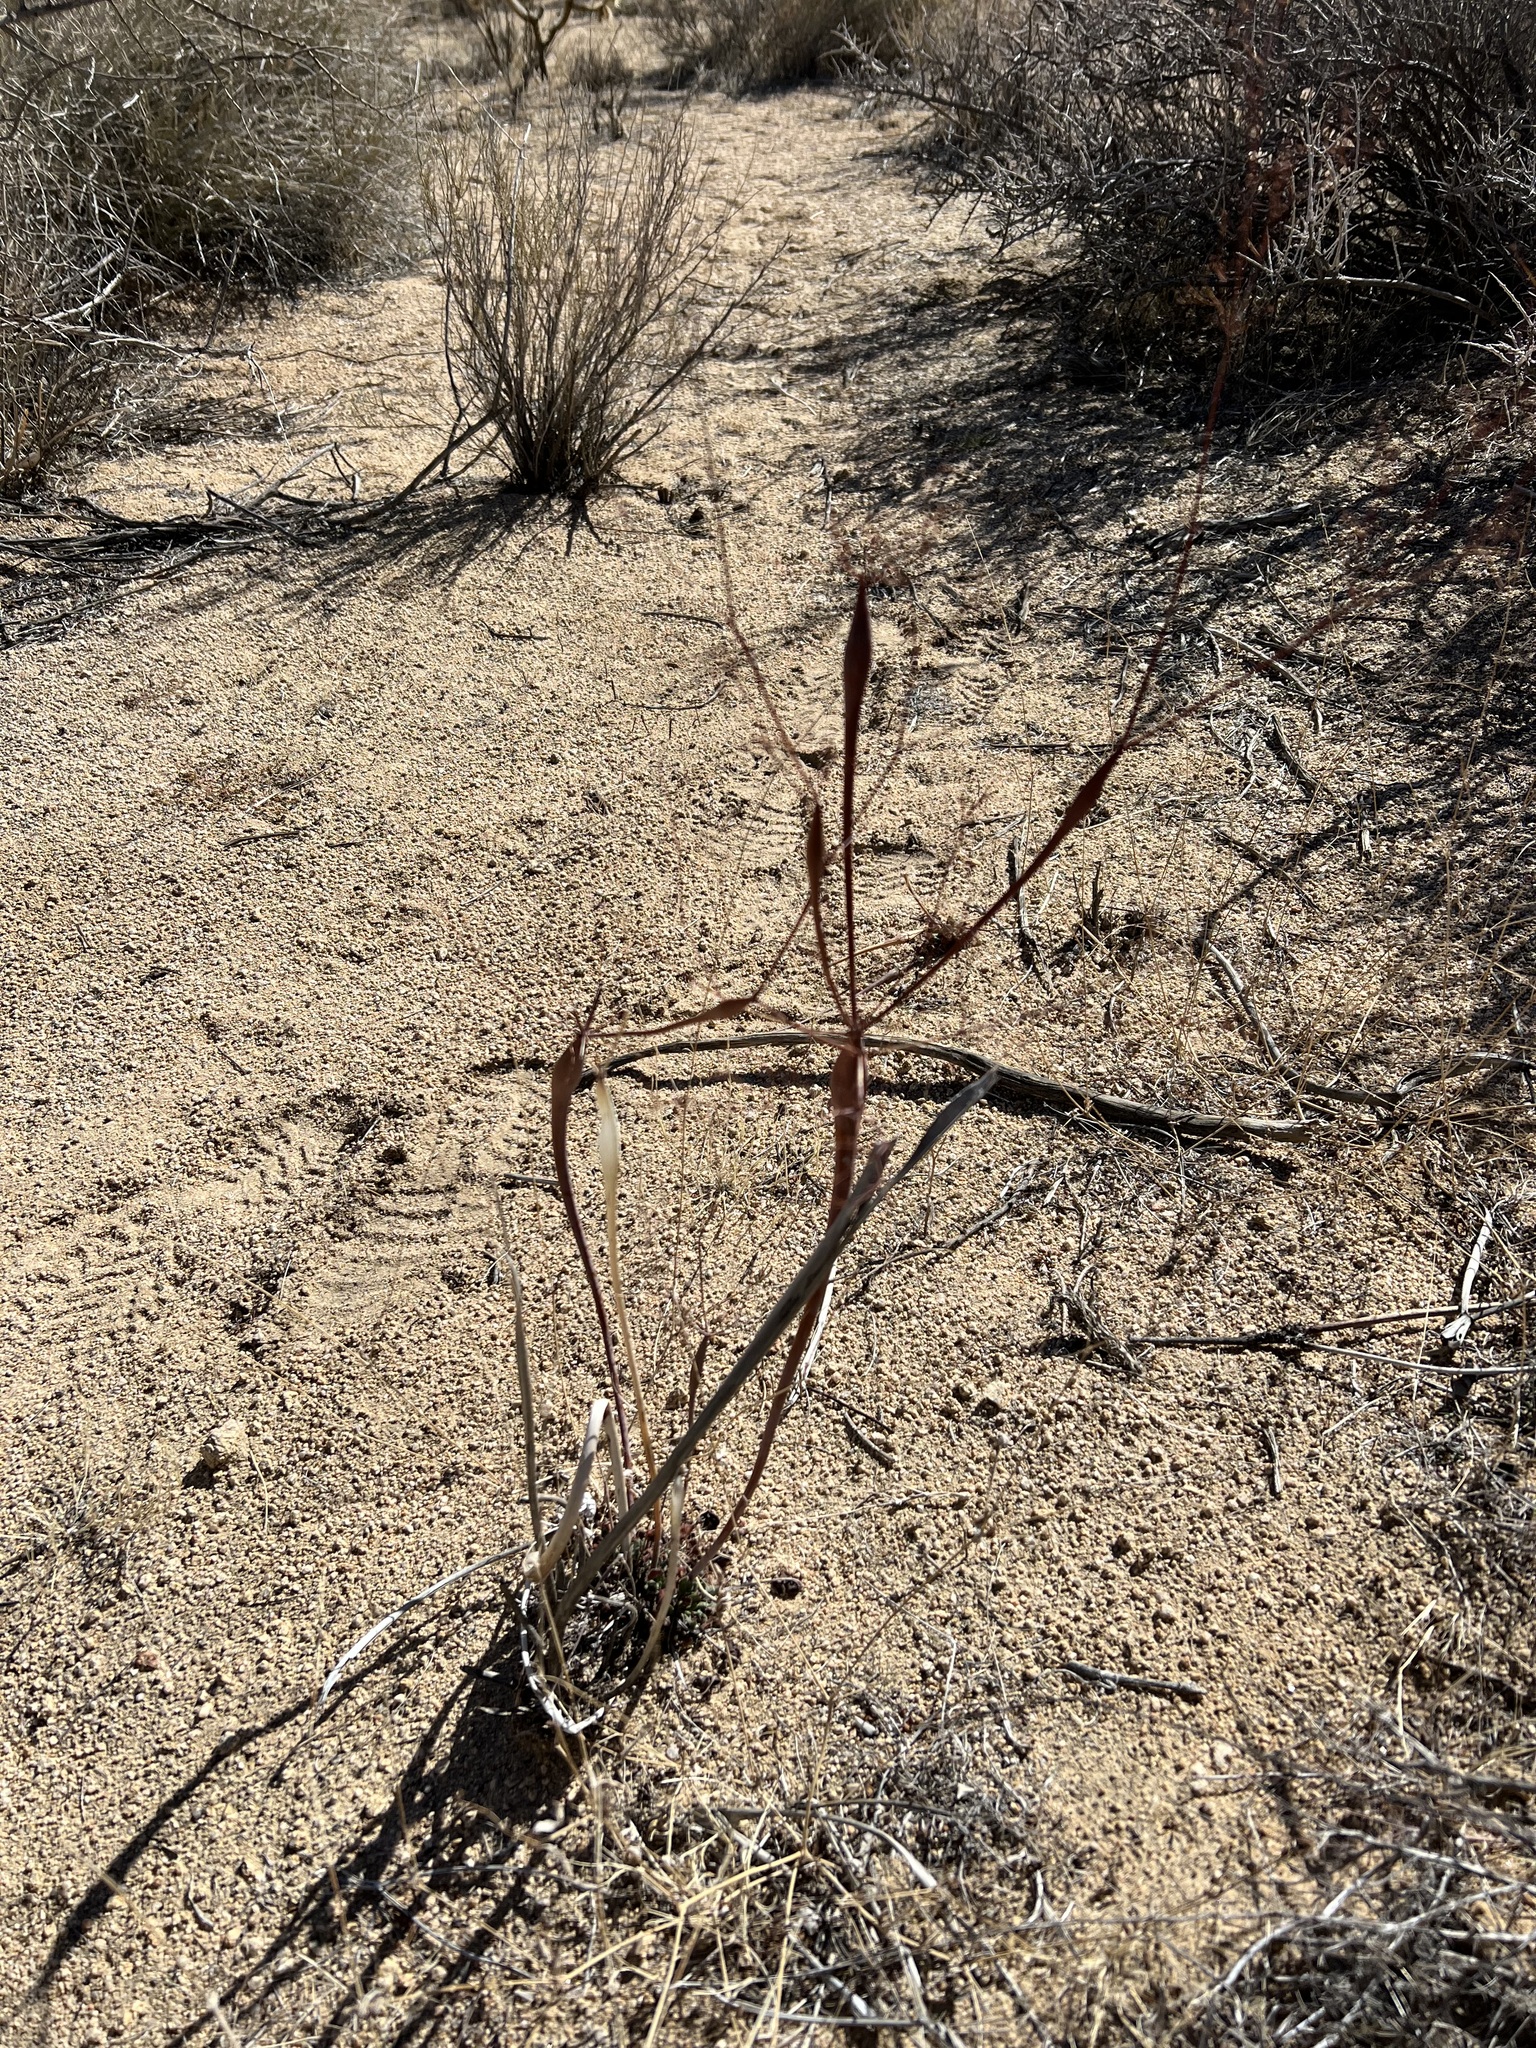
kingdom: Plantae
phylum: Tracheophyta
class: Magnoliopsida
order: Caryophyllales
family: Polygonaceae
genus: Eriogonum
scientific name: Eriogonum inflatum
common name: Desert trumpet
